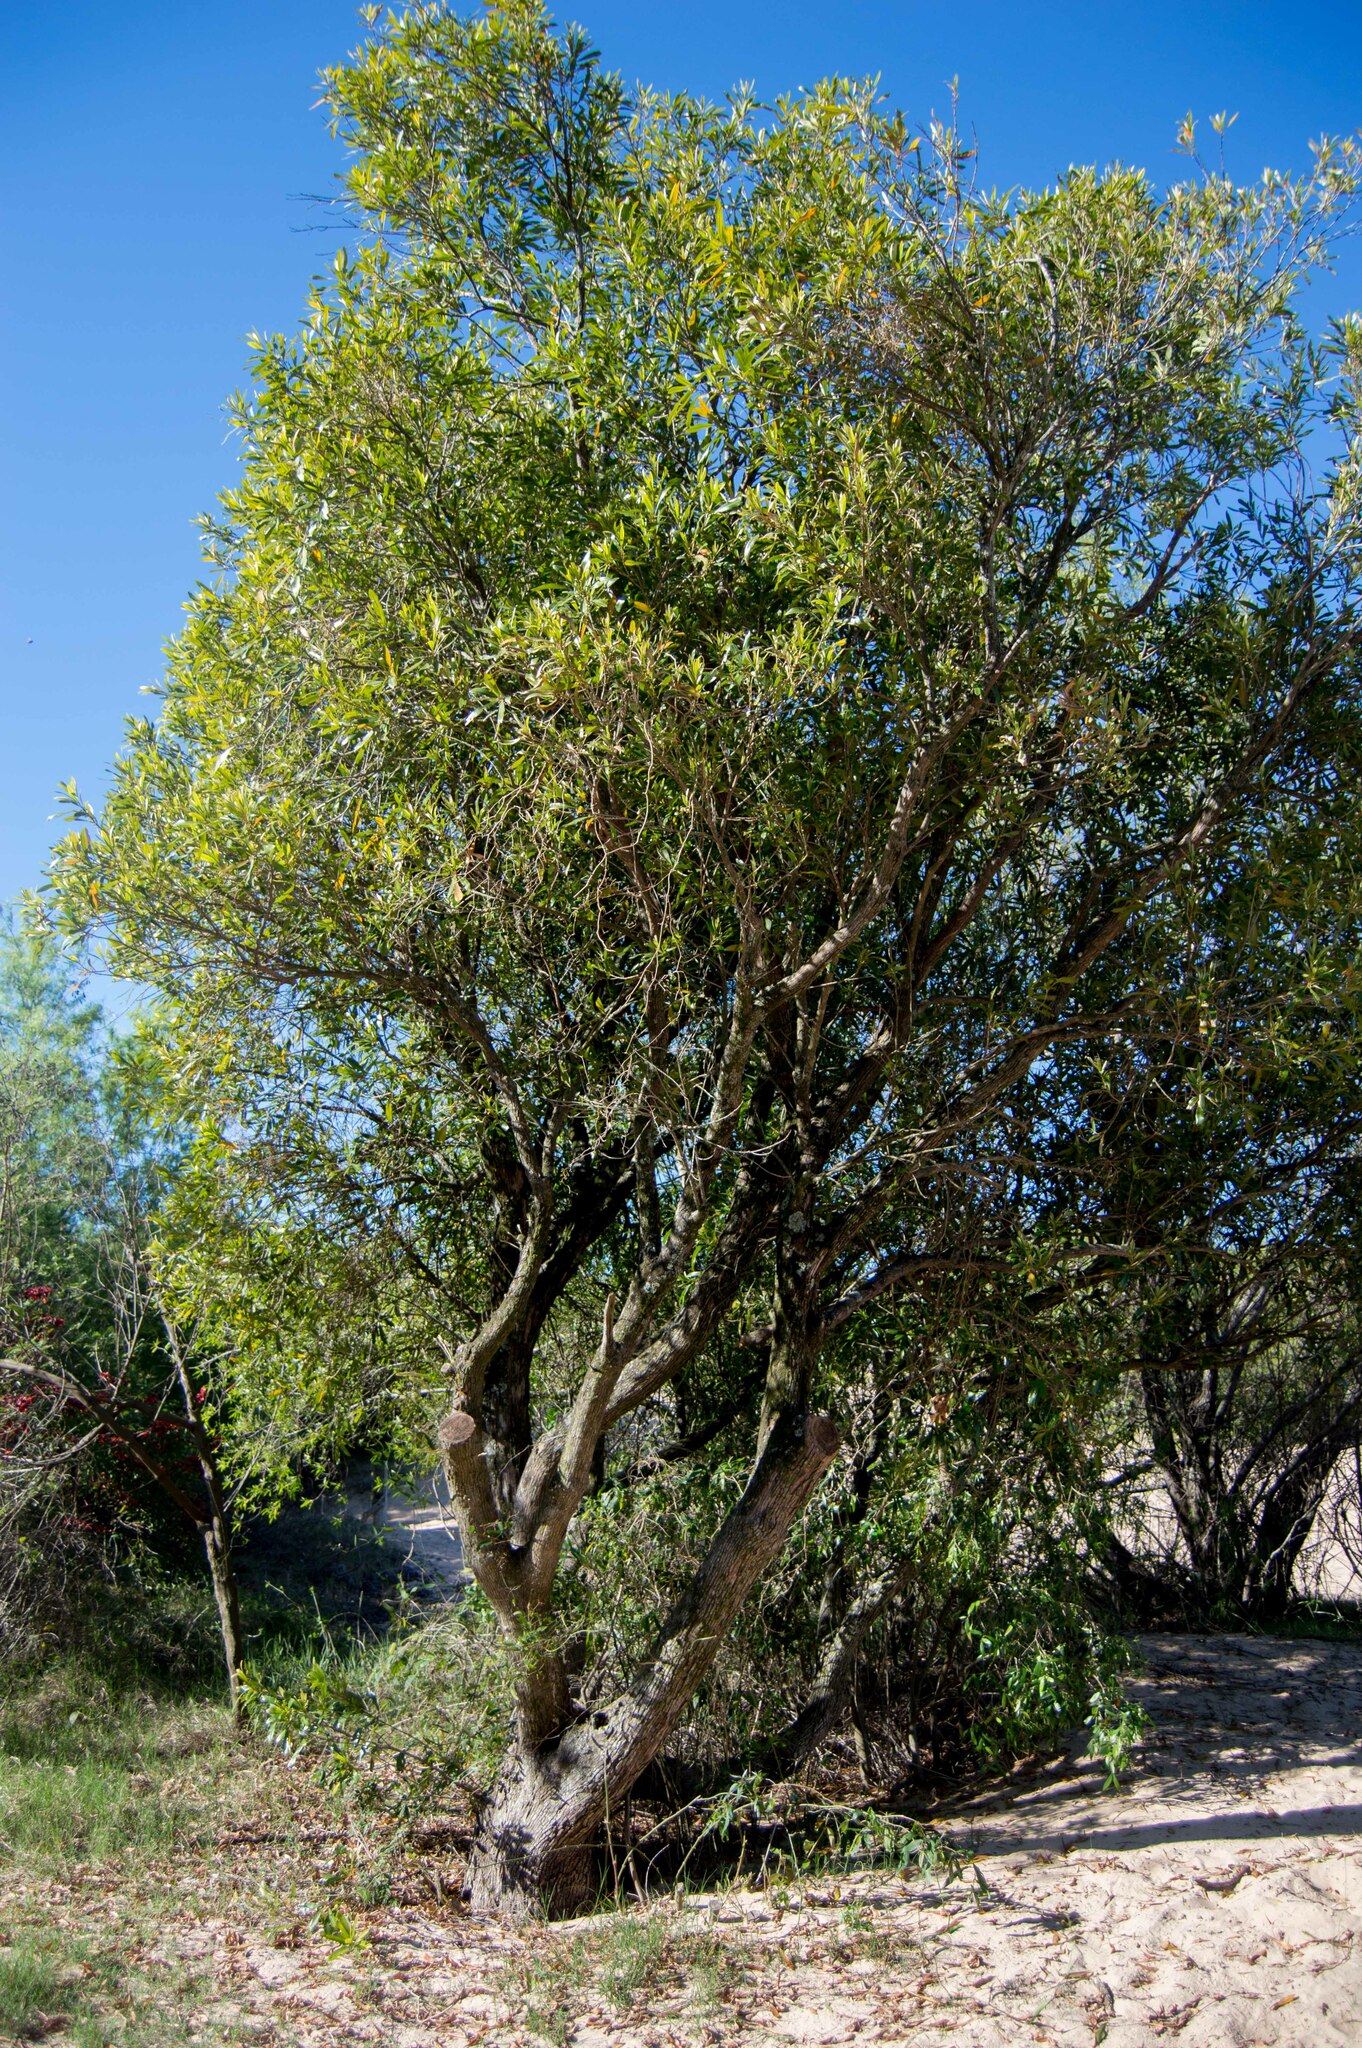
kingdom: Plantae
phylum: Tracheophyta
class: Magnoliopsida
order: Ericales
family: Sapotaceae
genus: Labatia
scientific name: Labatia salicifolia
